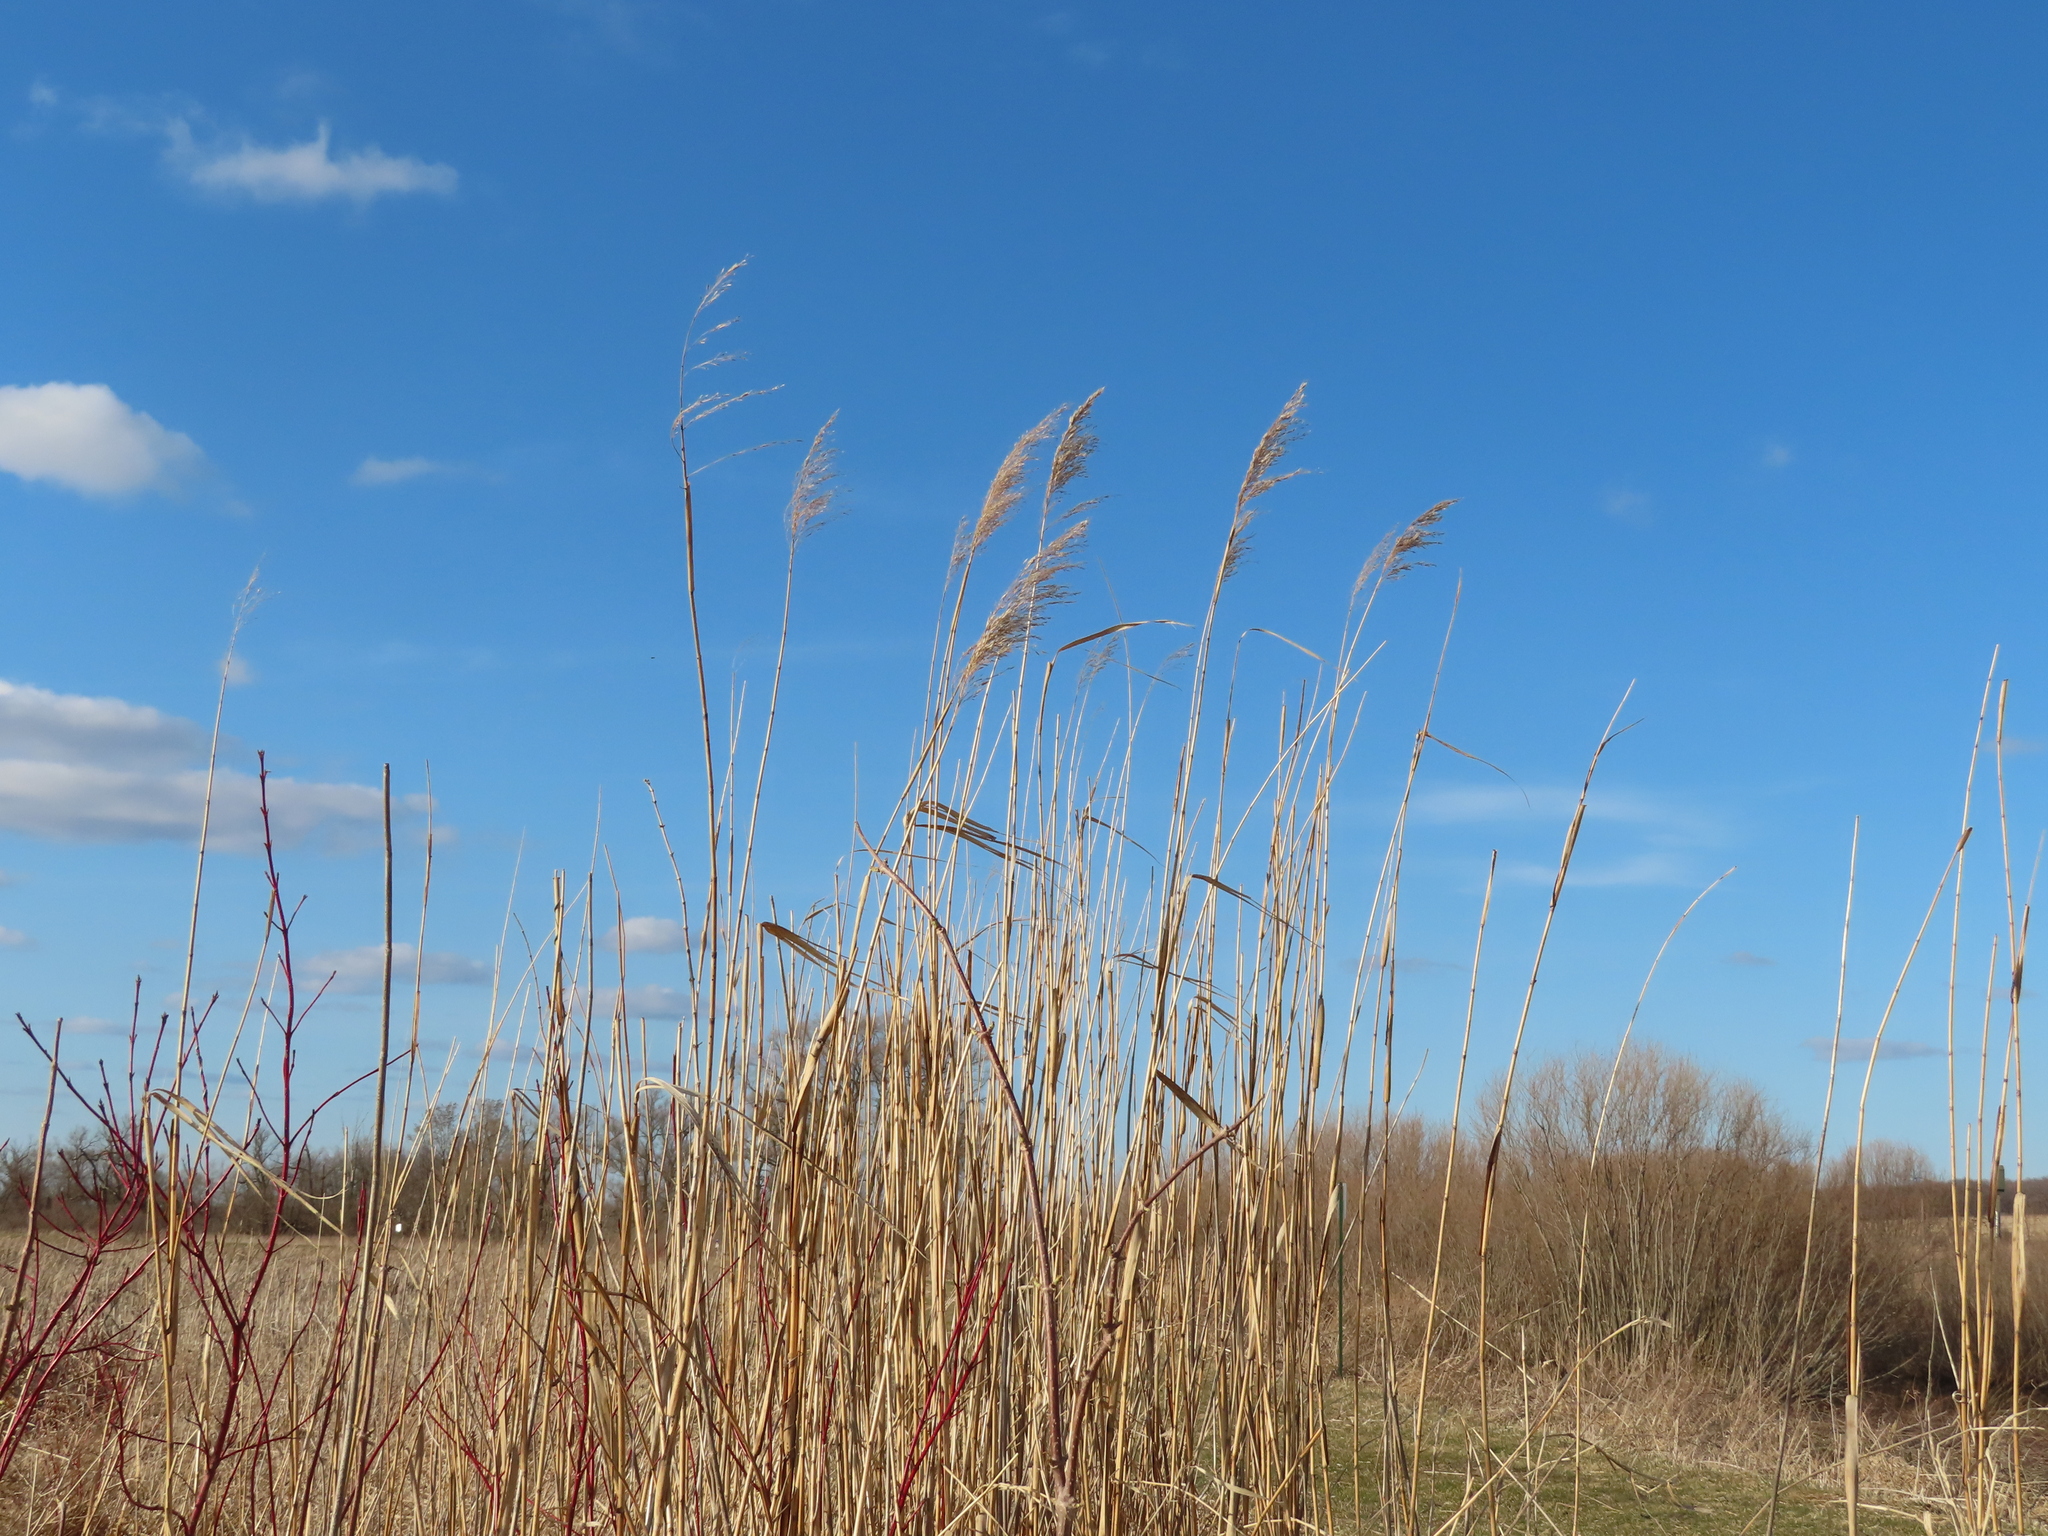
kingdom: Plantae
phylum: Tracheophyta
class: Liliopsida
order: Poales
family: Poaceae
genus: Phragmites
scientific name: Phragmites australis
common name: Common reed
